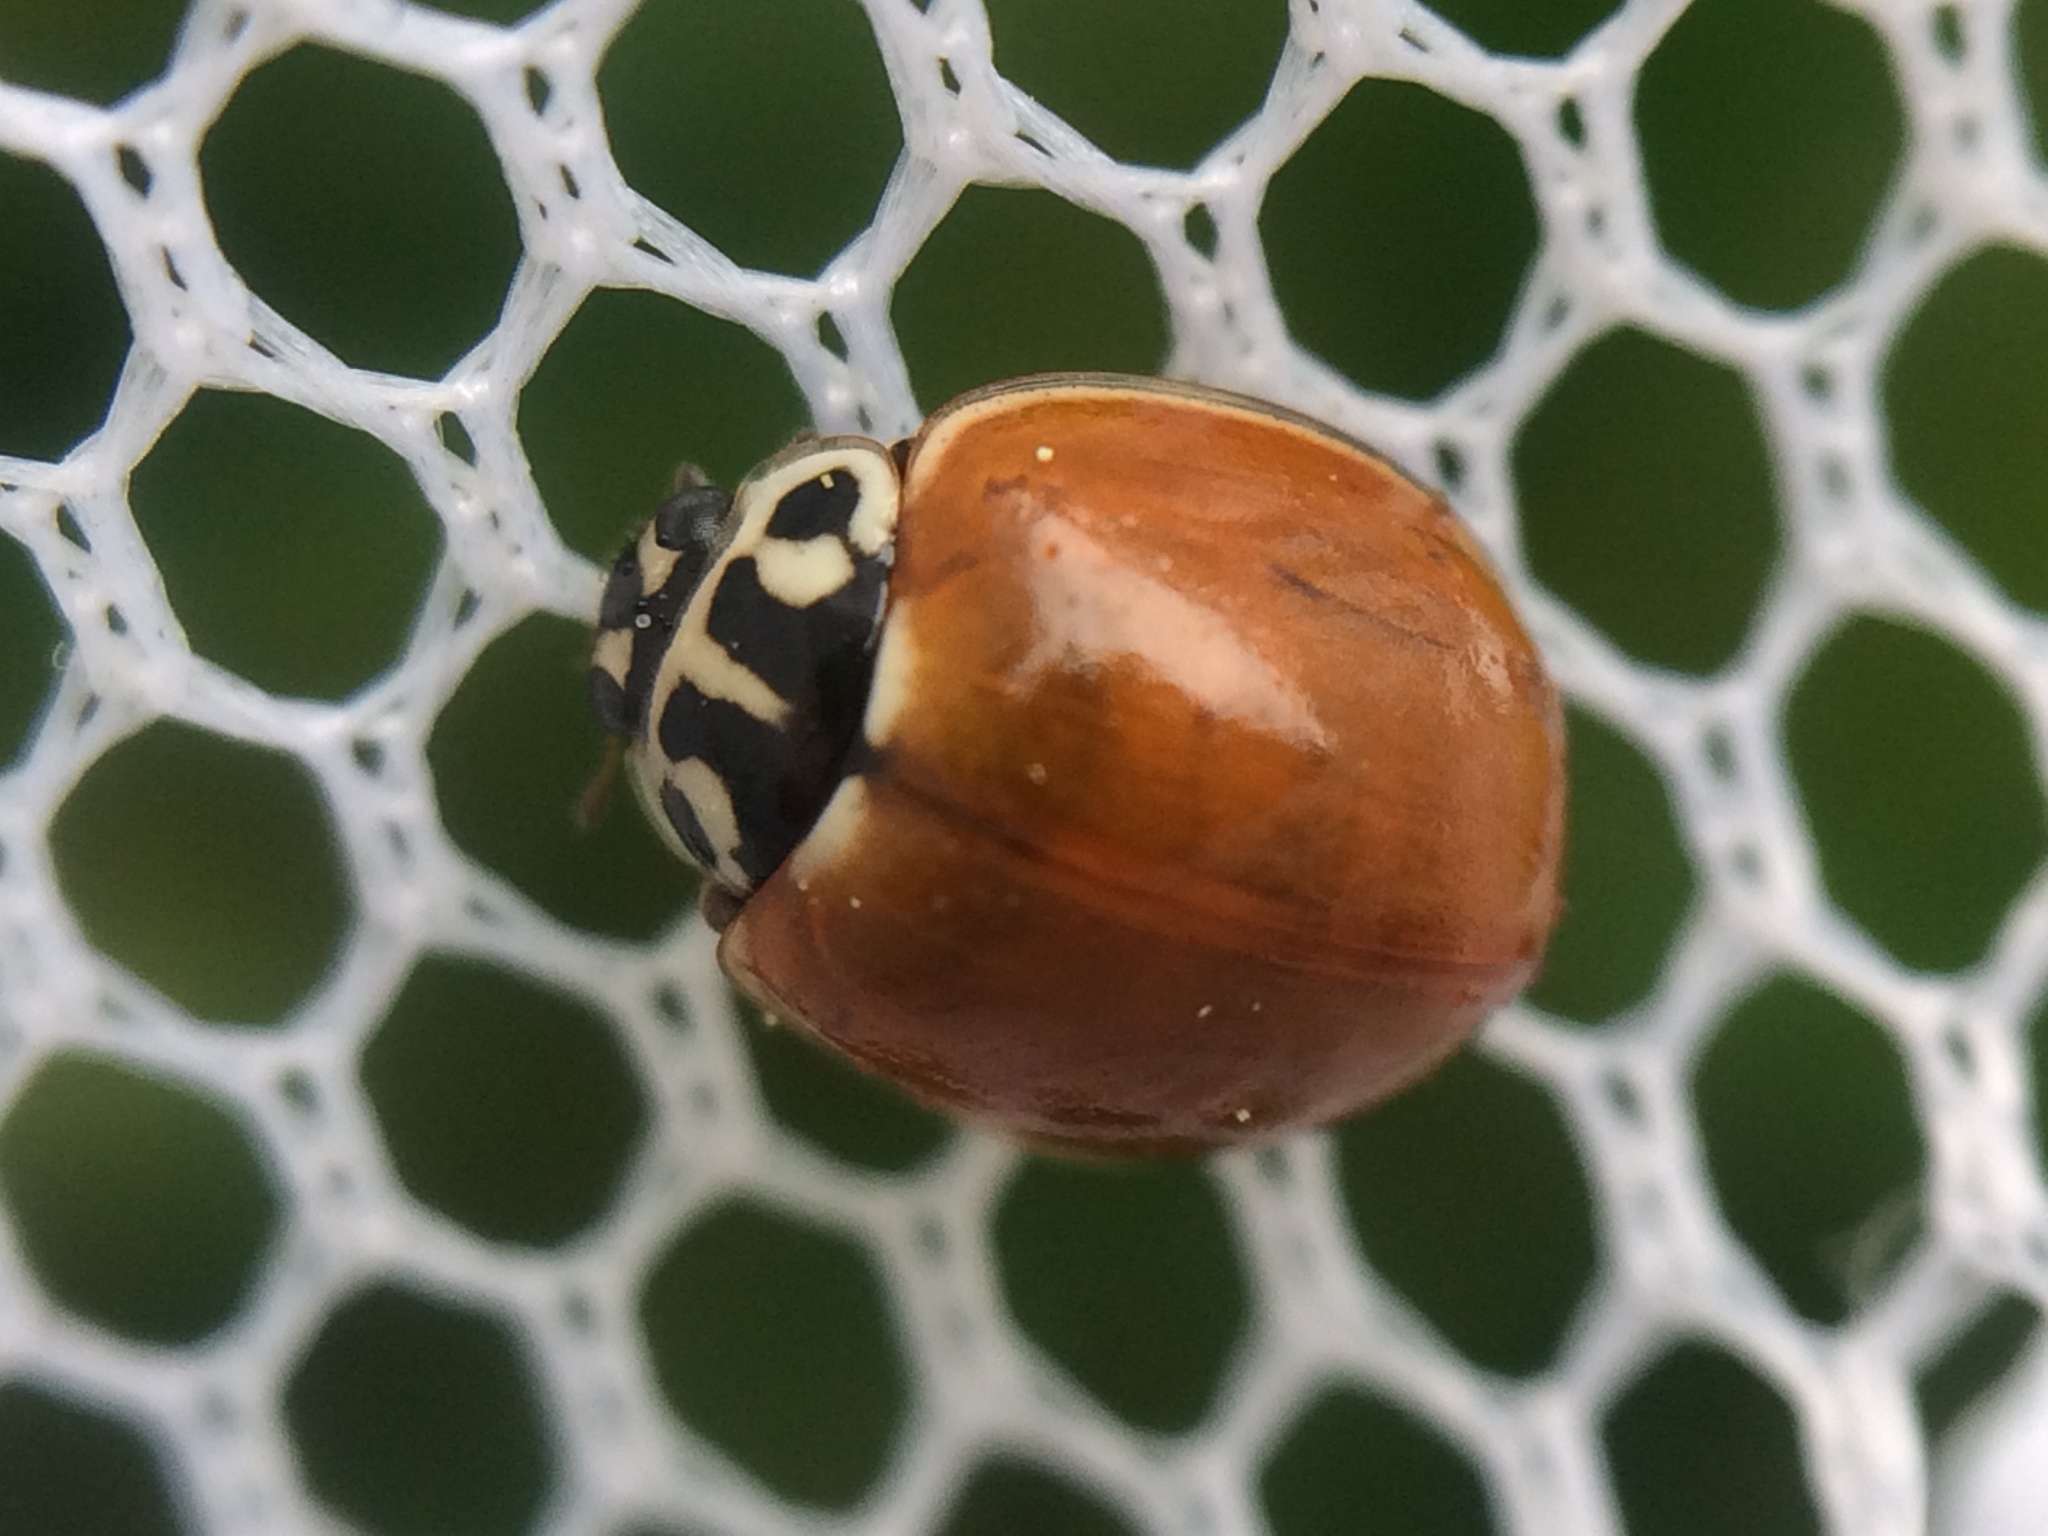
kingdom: Animalia
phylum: Arthropoda
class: Insecta
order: Coleoptera
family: Coccinellidae
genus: Cycloneda
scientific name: Cycloneda polita
